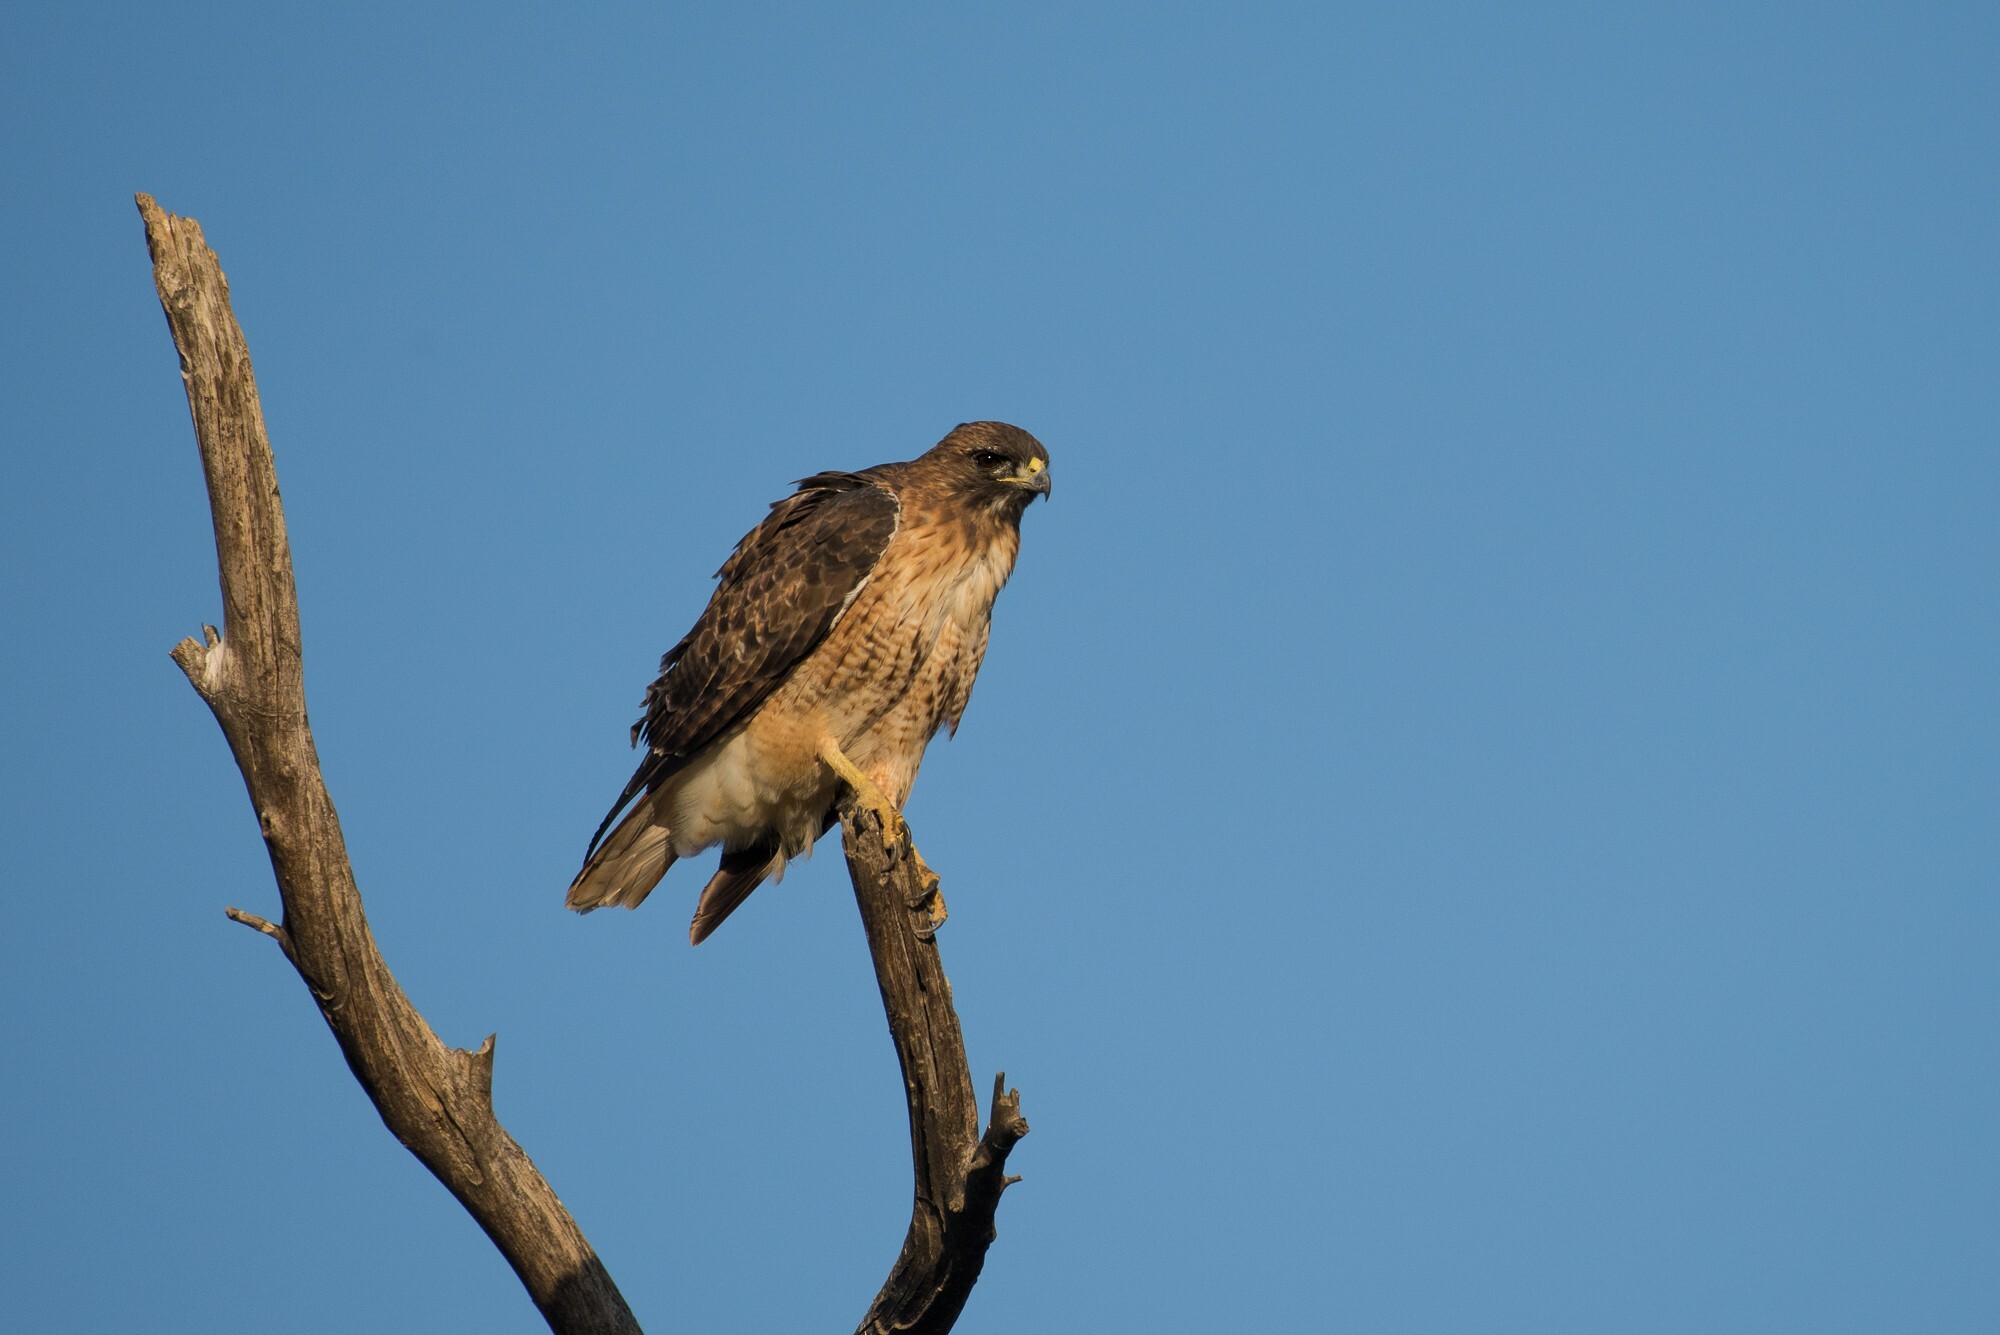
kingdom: Animalia
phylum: Chordata
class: Aves
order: Accipitriformes
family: Accipitridae
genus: Buteo
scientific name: Buteo jamaicensis
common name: Red-tailed hawk
